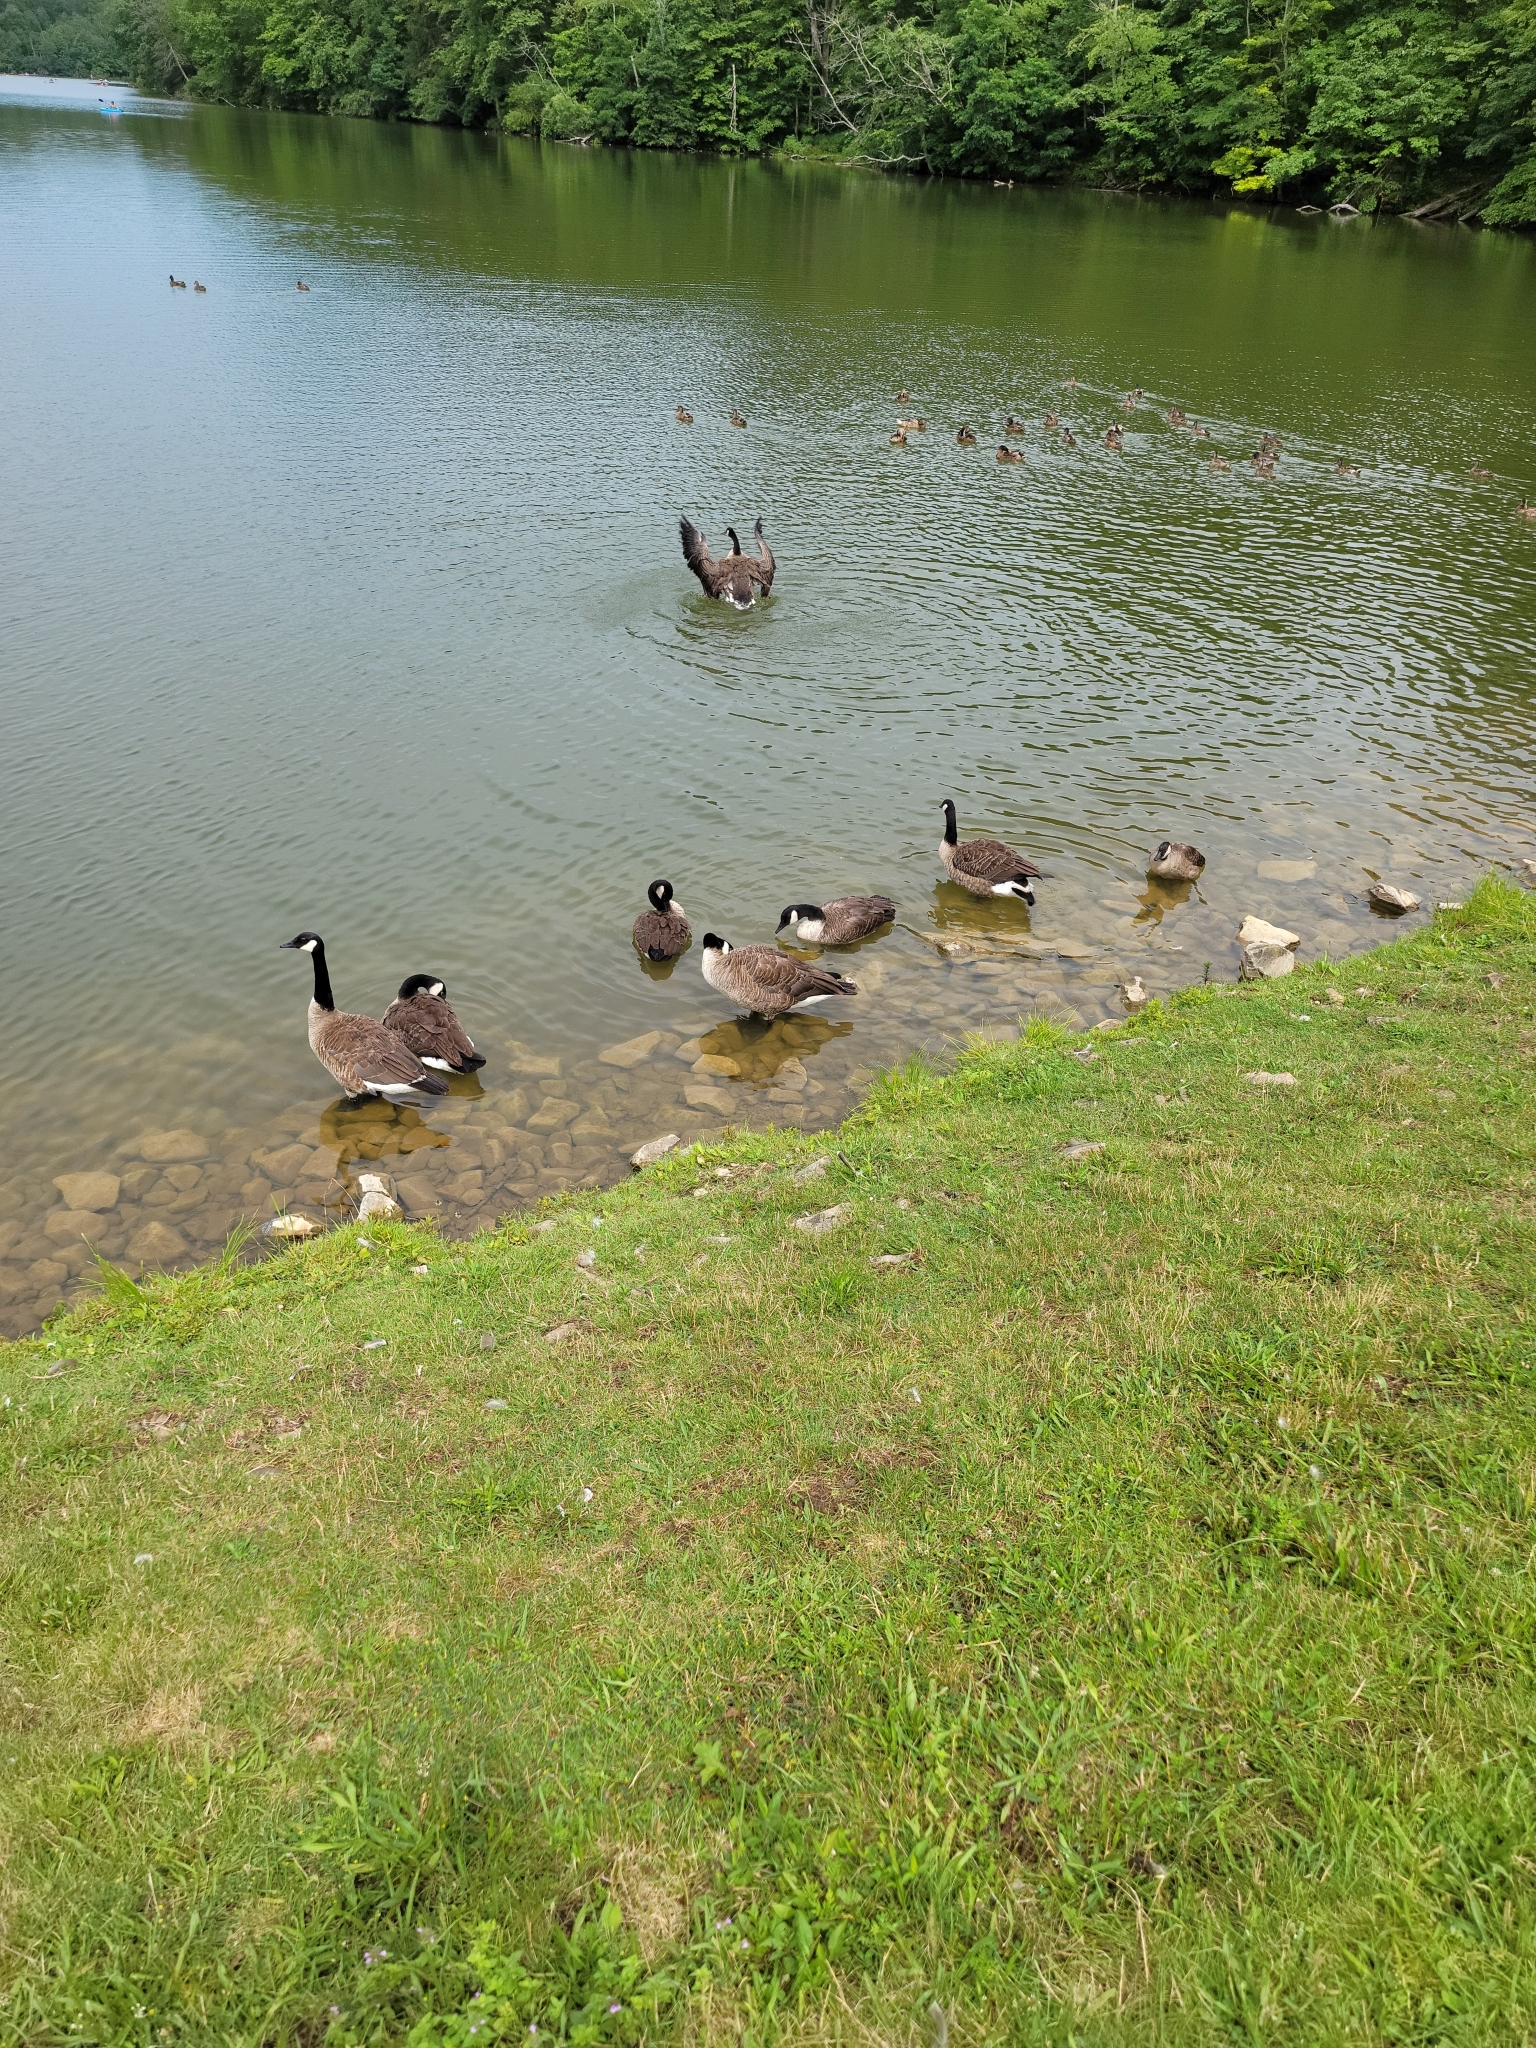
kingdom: Animalia
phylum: Chordata
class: Aves
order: Anseriformes
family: Anatidae
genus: Branta
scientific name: Branta canadensis
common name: Canada goose
